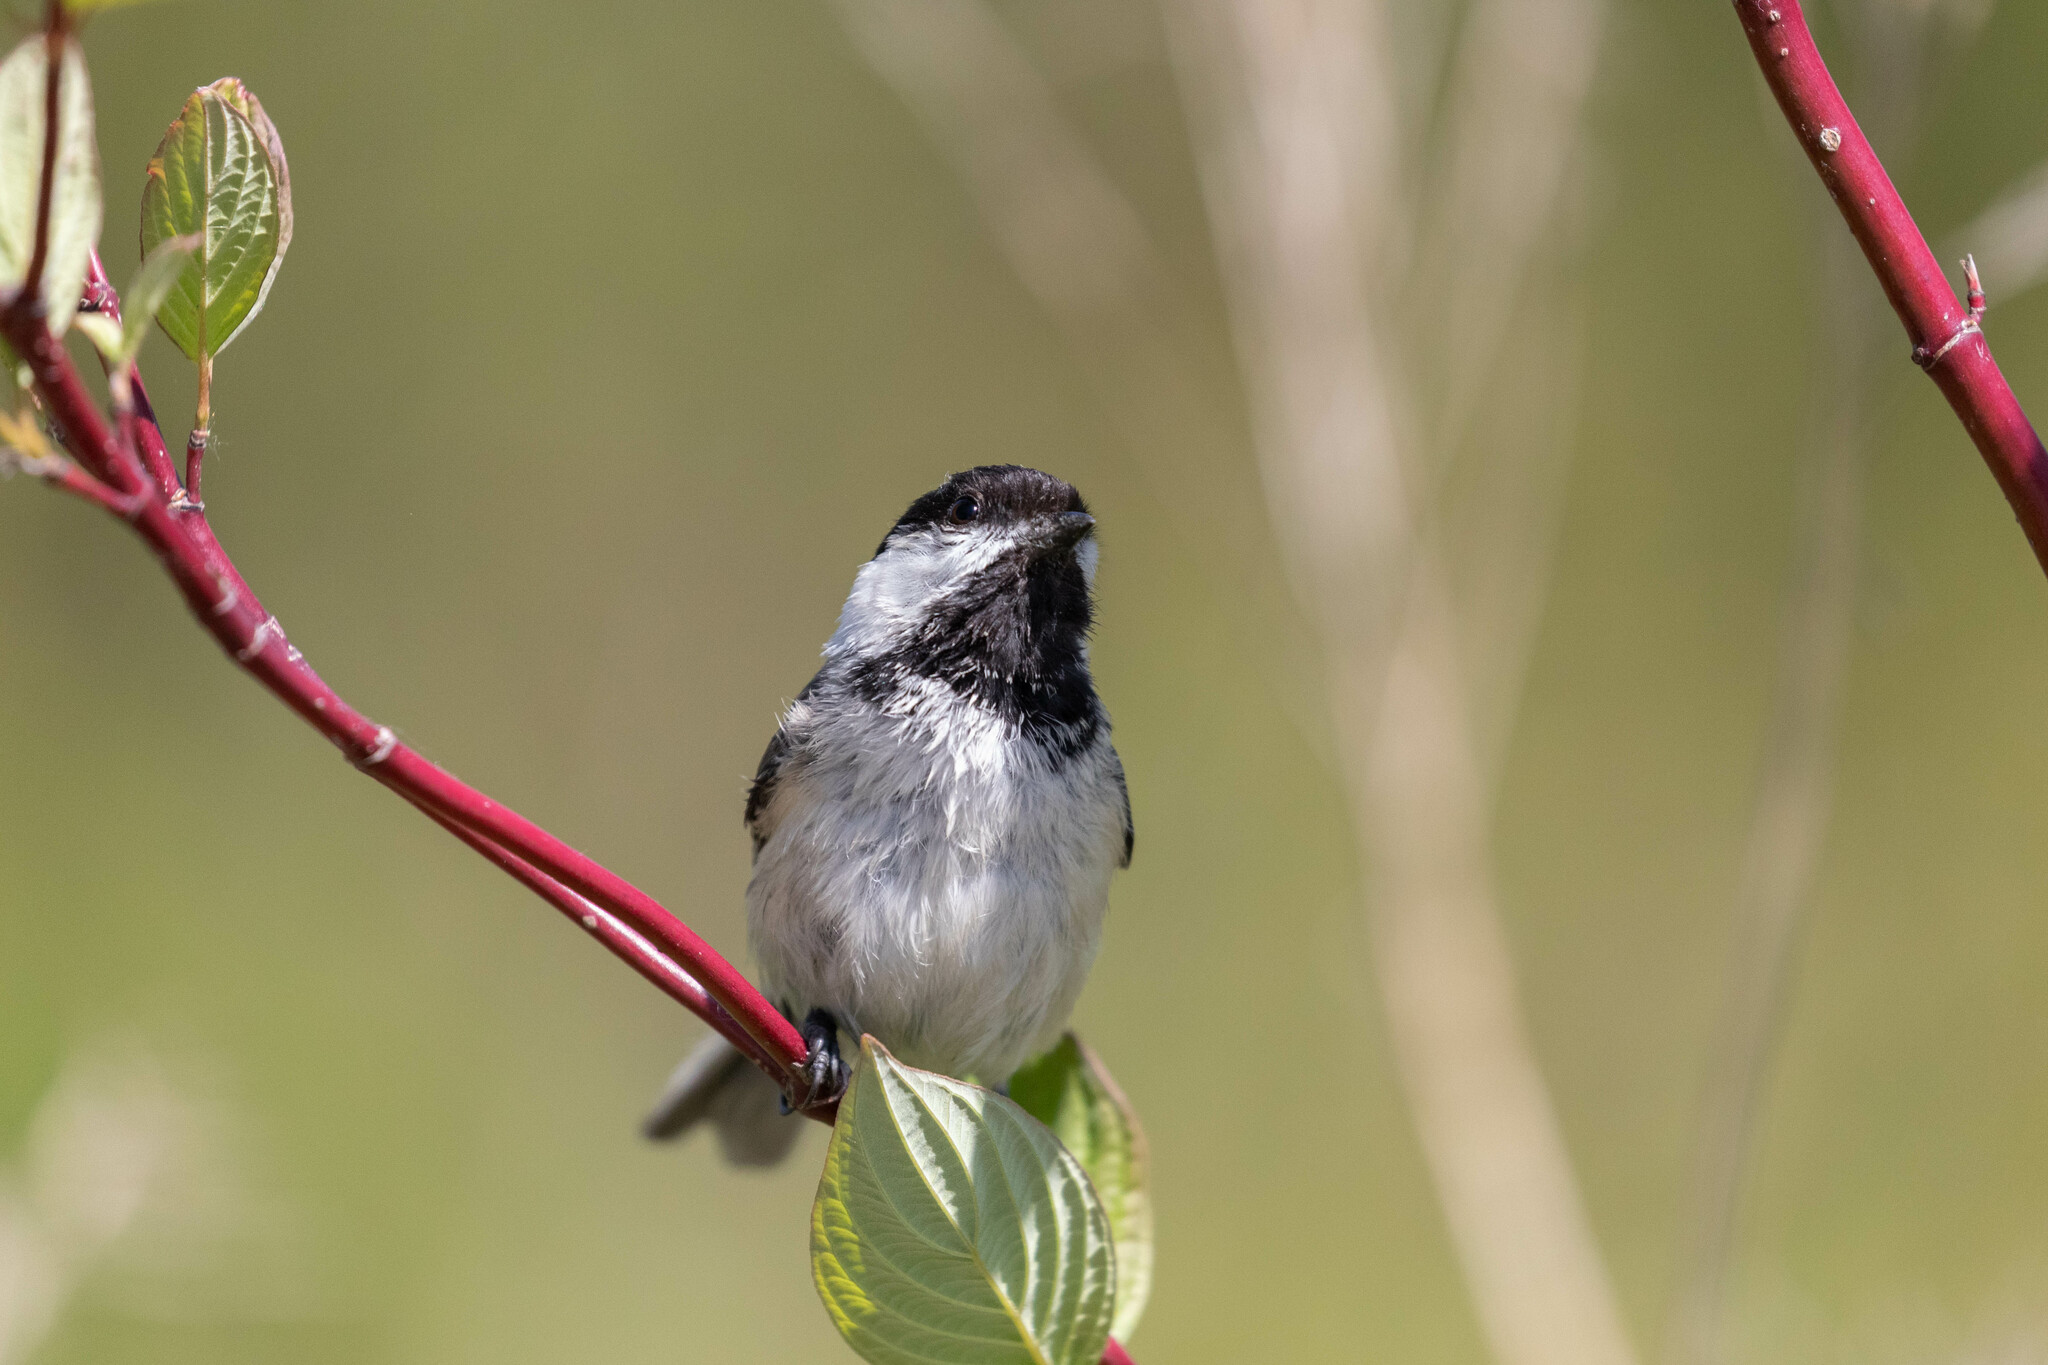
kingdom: Animalia
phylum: Chordata
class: Aves
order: Passeriformes
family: Paridae
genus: Poecile
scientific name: Poecile atricapillus
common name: Black-capped chickadee
